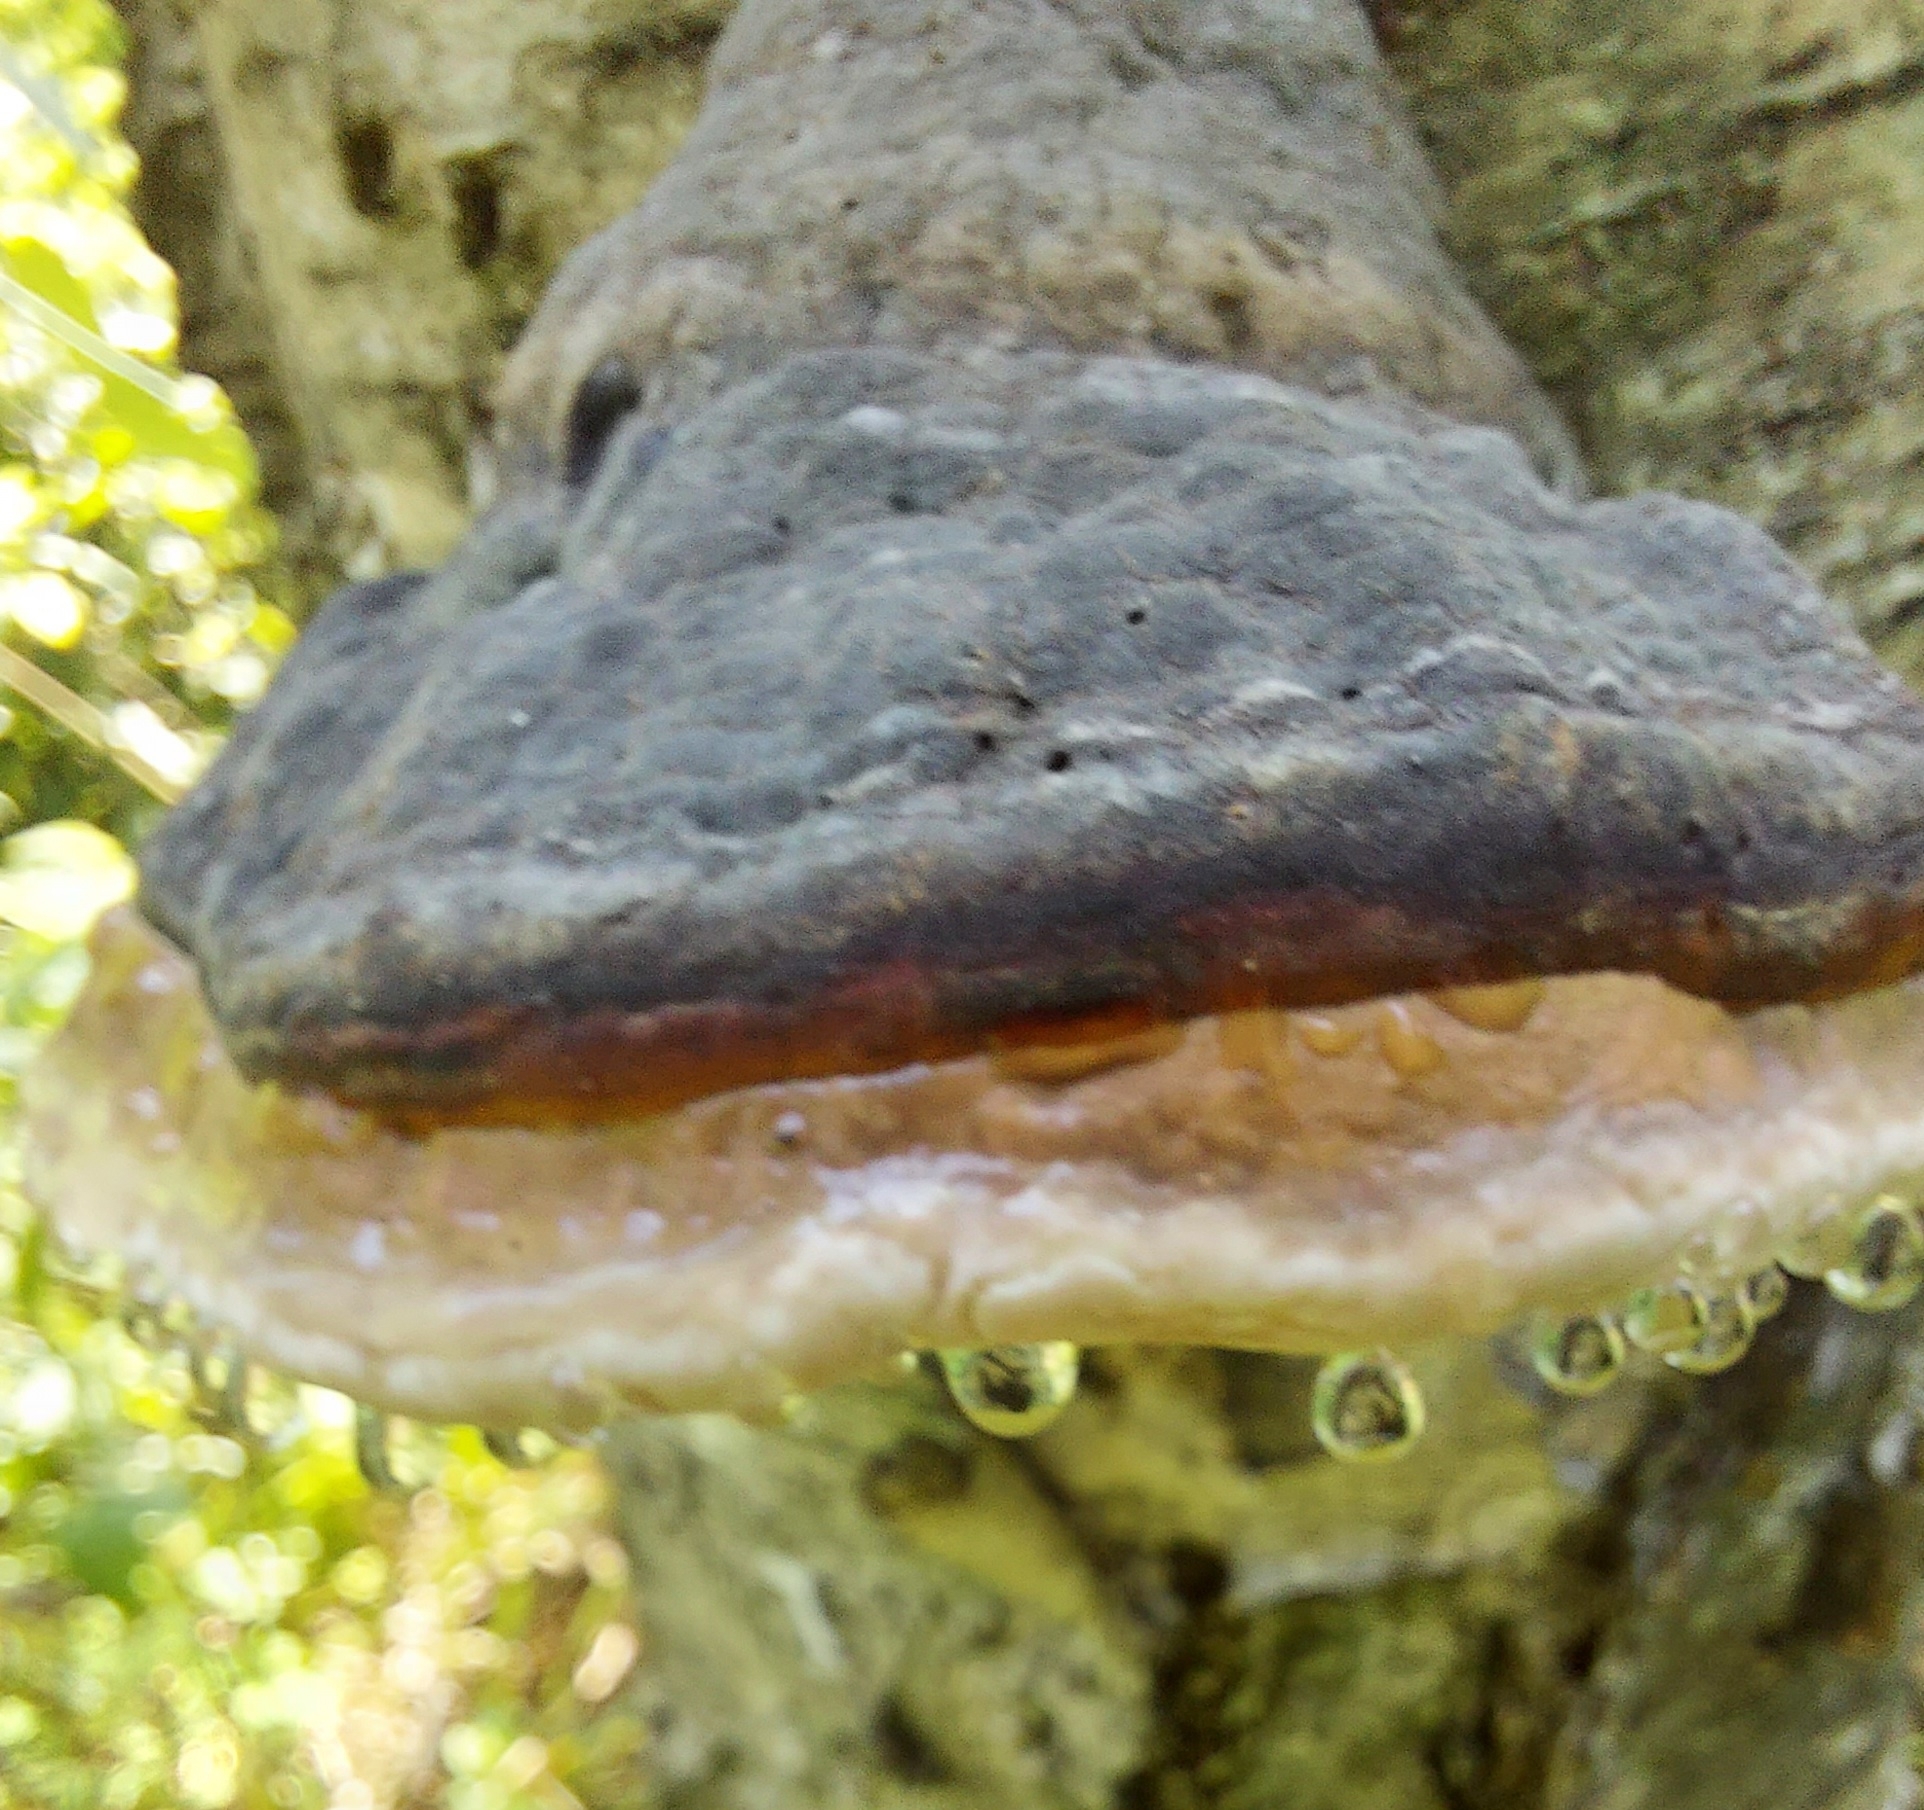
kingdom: Fungi
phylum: Basidiomycota
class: Agaricomycetes
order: Polyporales
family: Fomitopsidaceae
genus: Fomitopsis
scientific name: Fomitopsis pinicola
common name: Red-belted bracket
